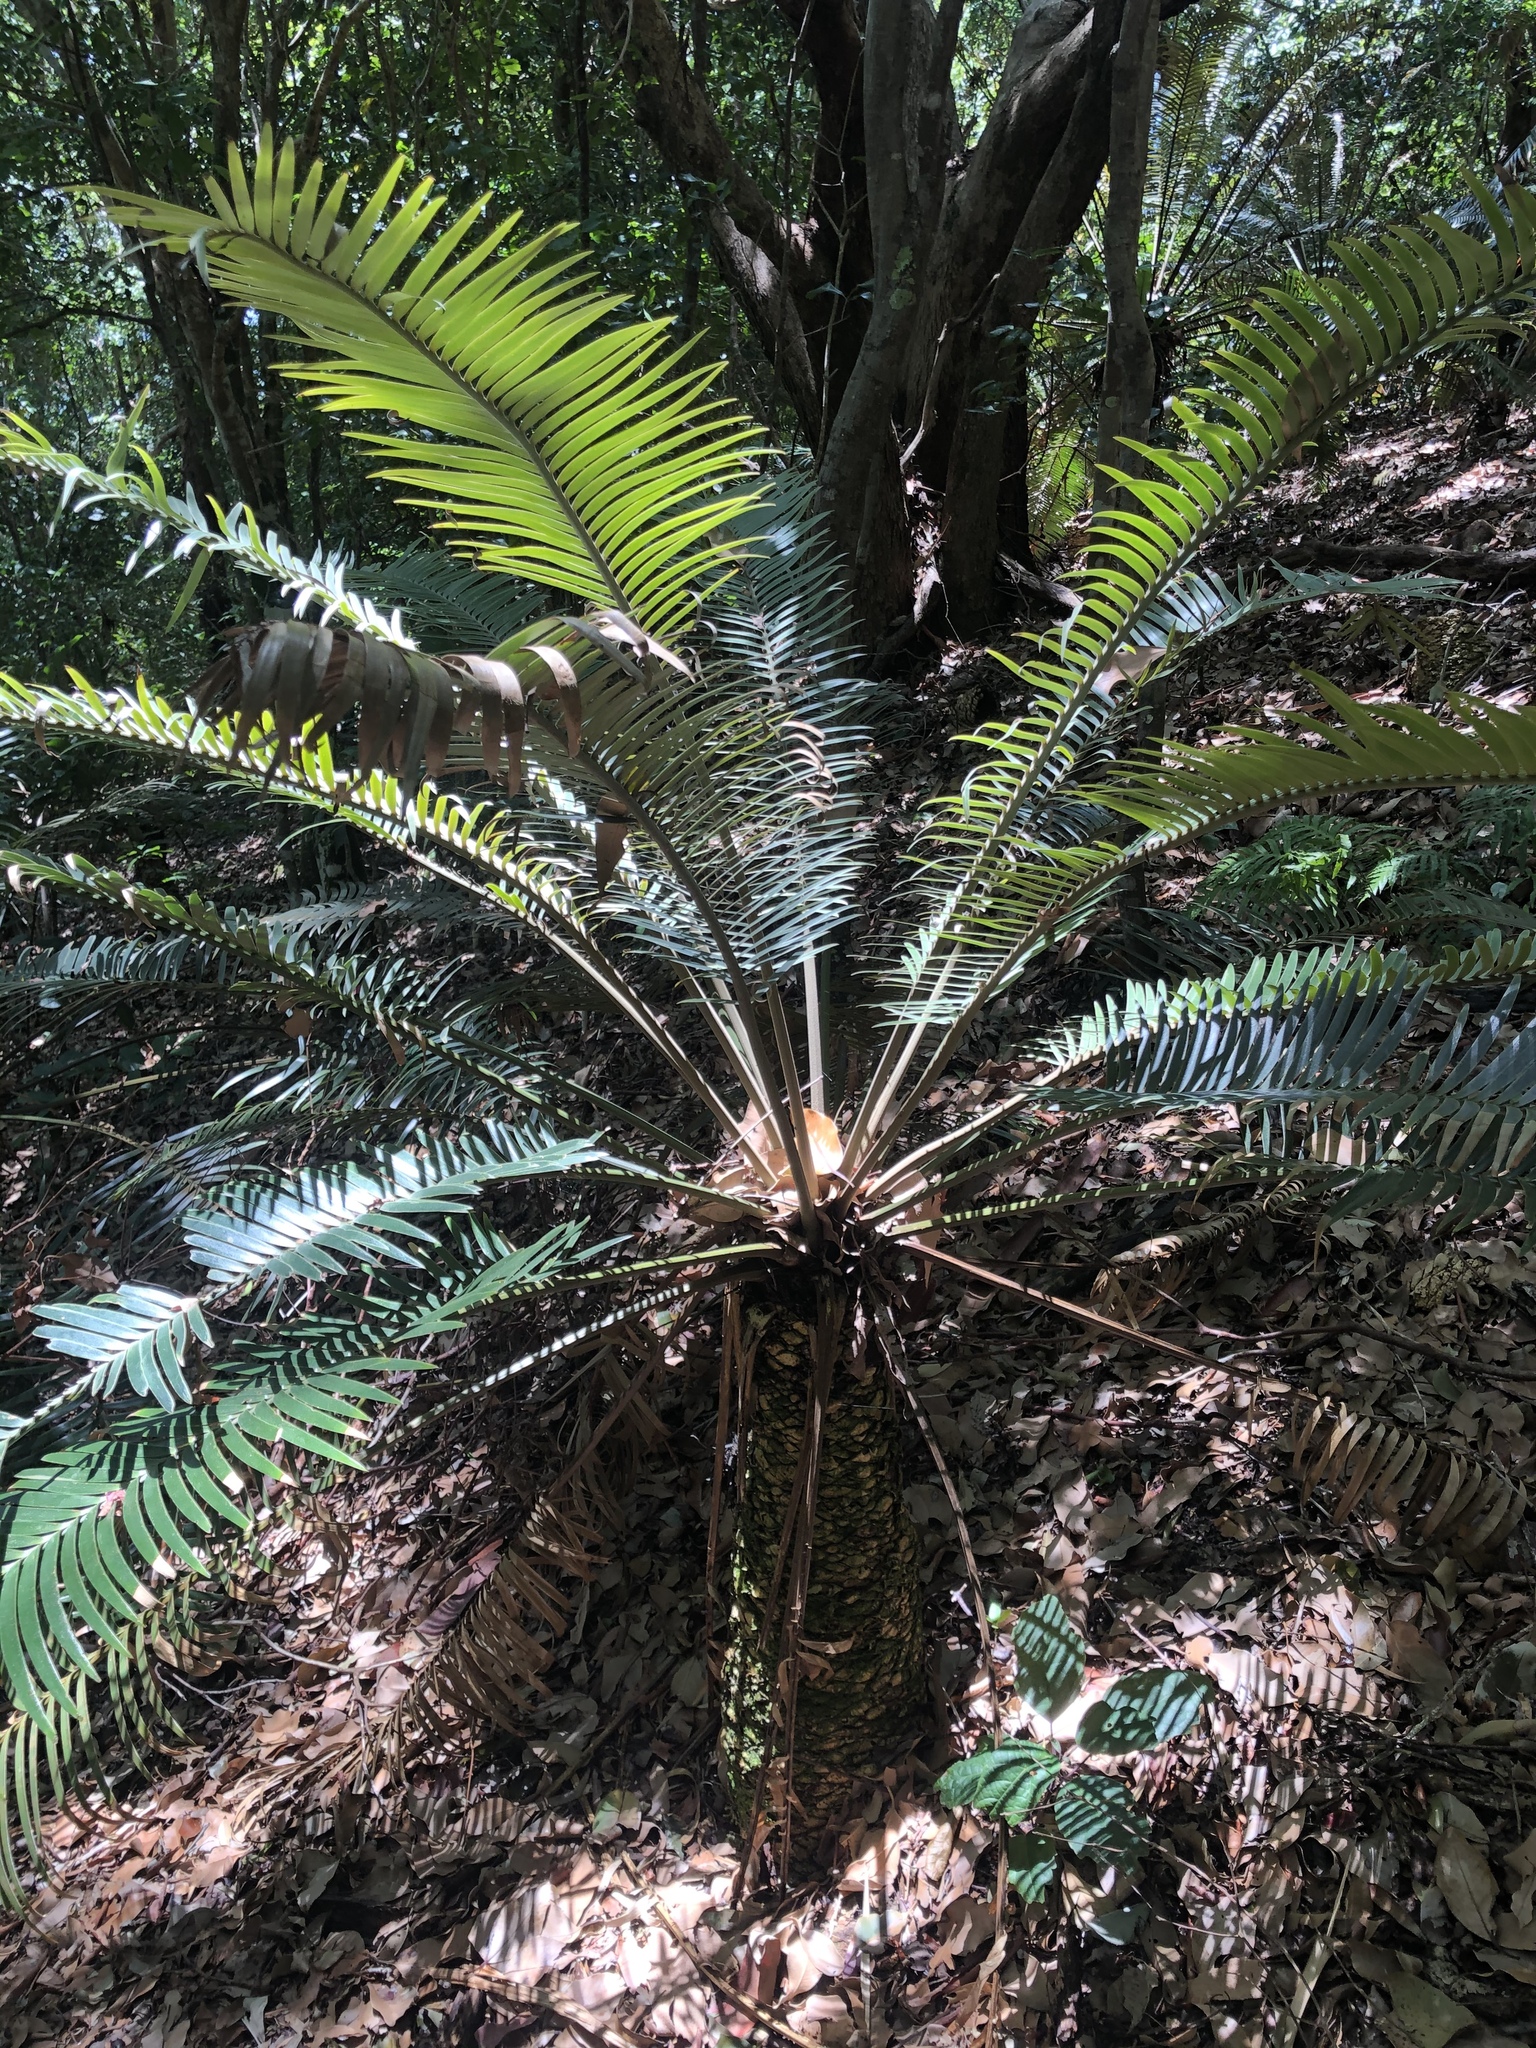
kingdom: Plantae
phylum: Tracheophyta
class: Cycadopsida
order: Cycadales
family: Zamiaceae
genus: Lepidozamia
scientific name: Lepidozamia peroffskyana
